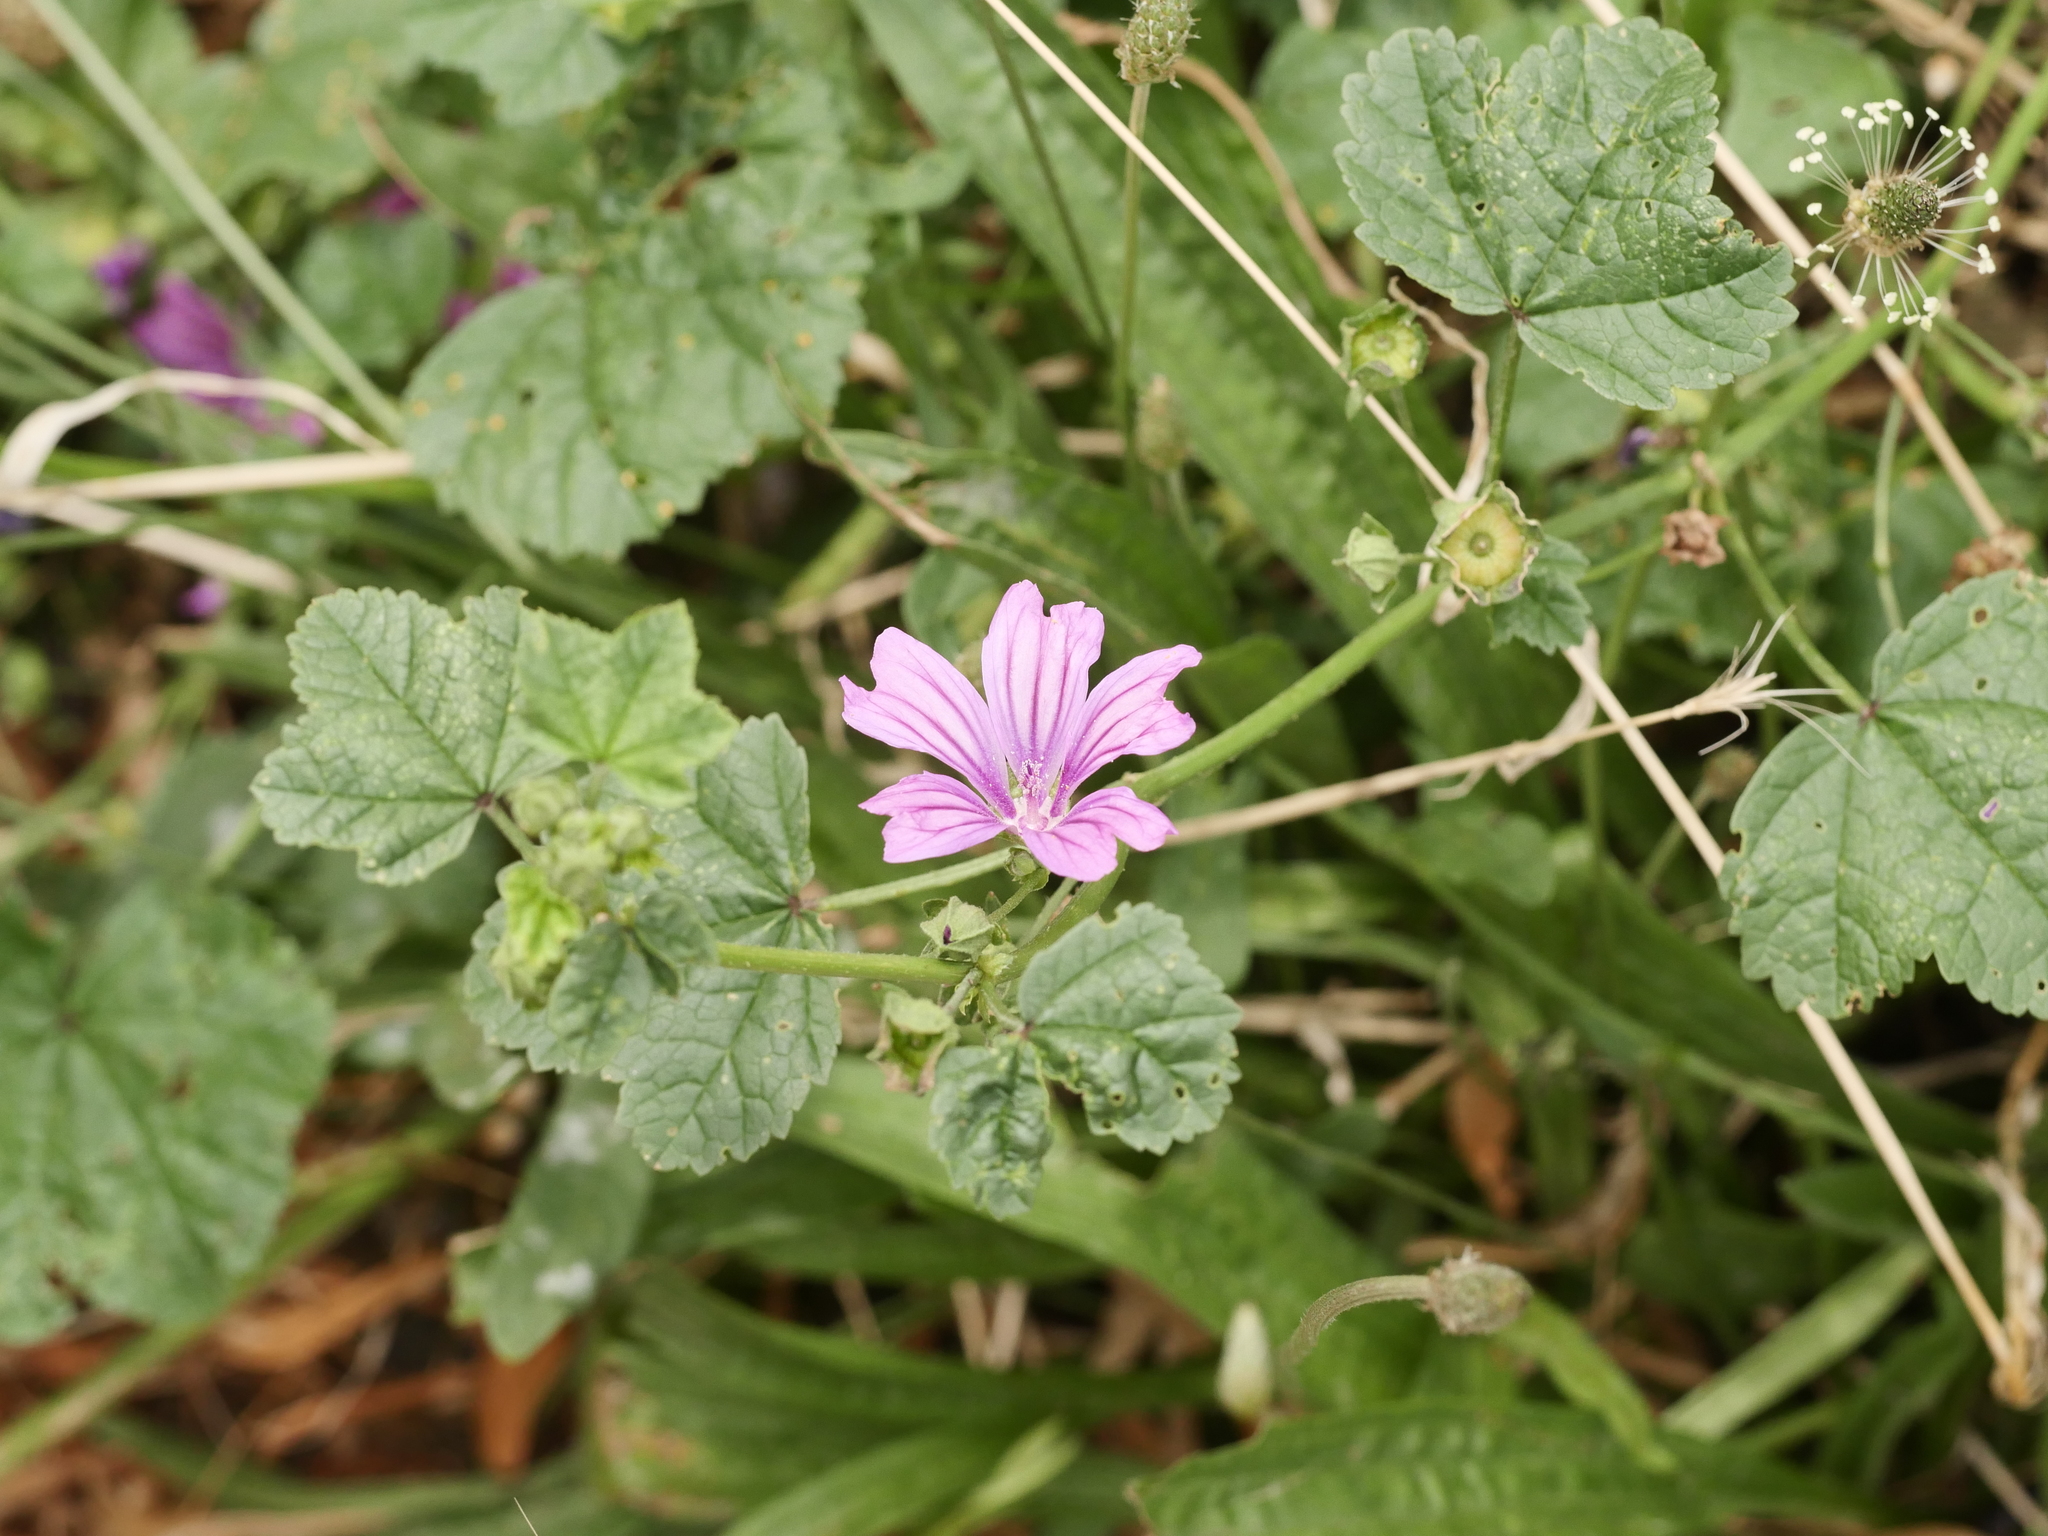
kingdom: Plantae
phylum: Tracheophyta
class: Magnoliopsida
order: Malvales
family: Malvaceae
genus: Malva
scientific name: Malva sylvestris
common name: Common mallow
